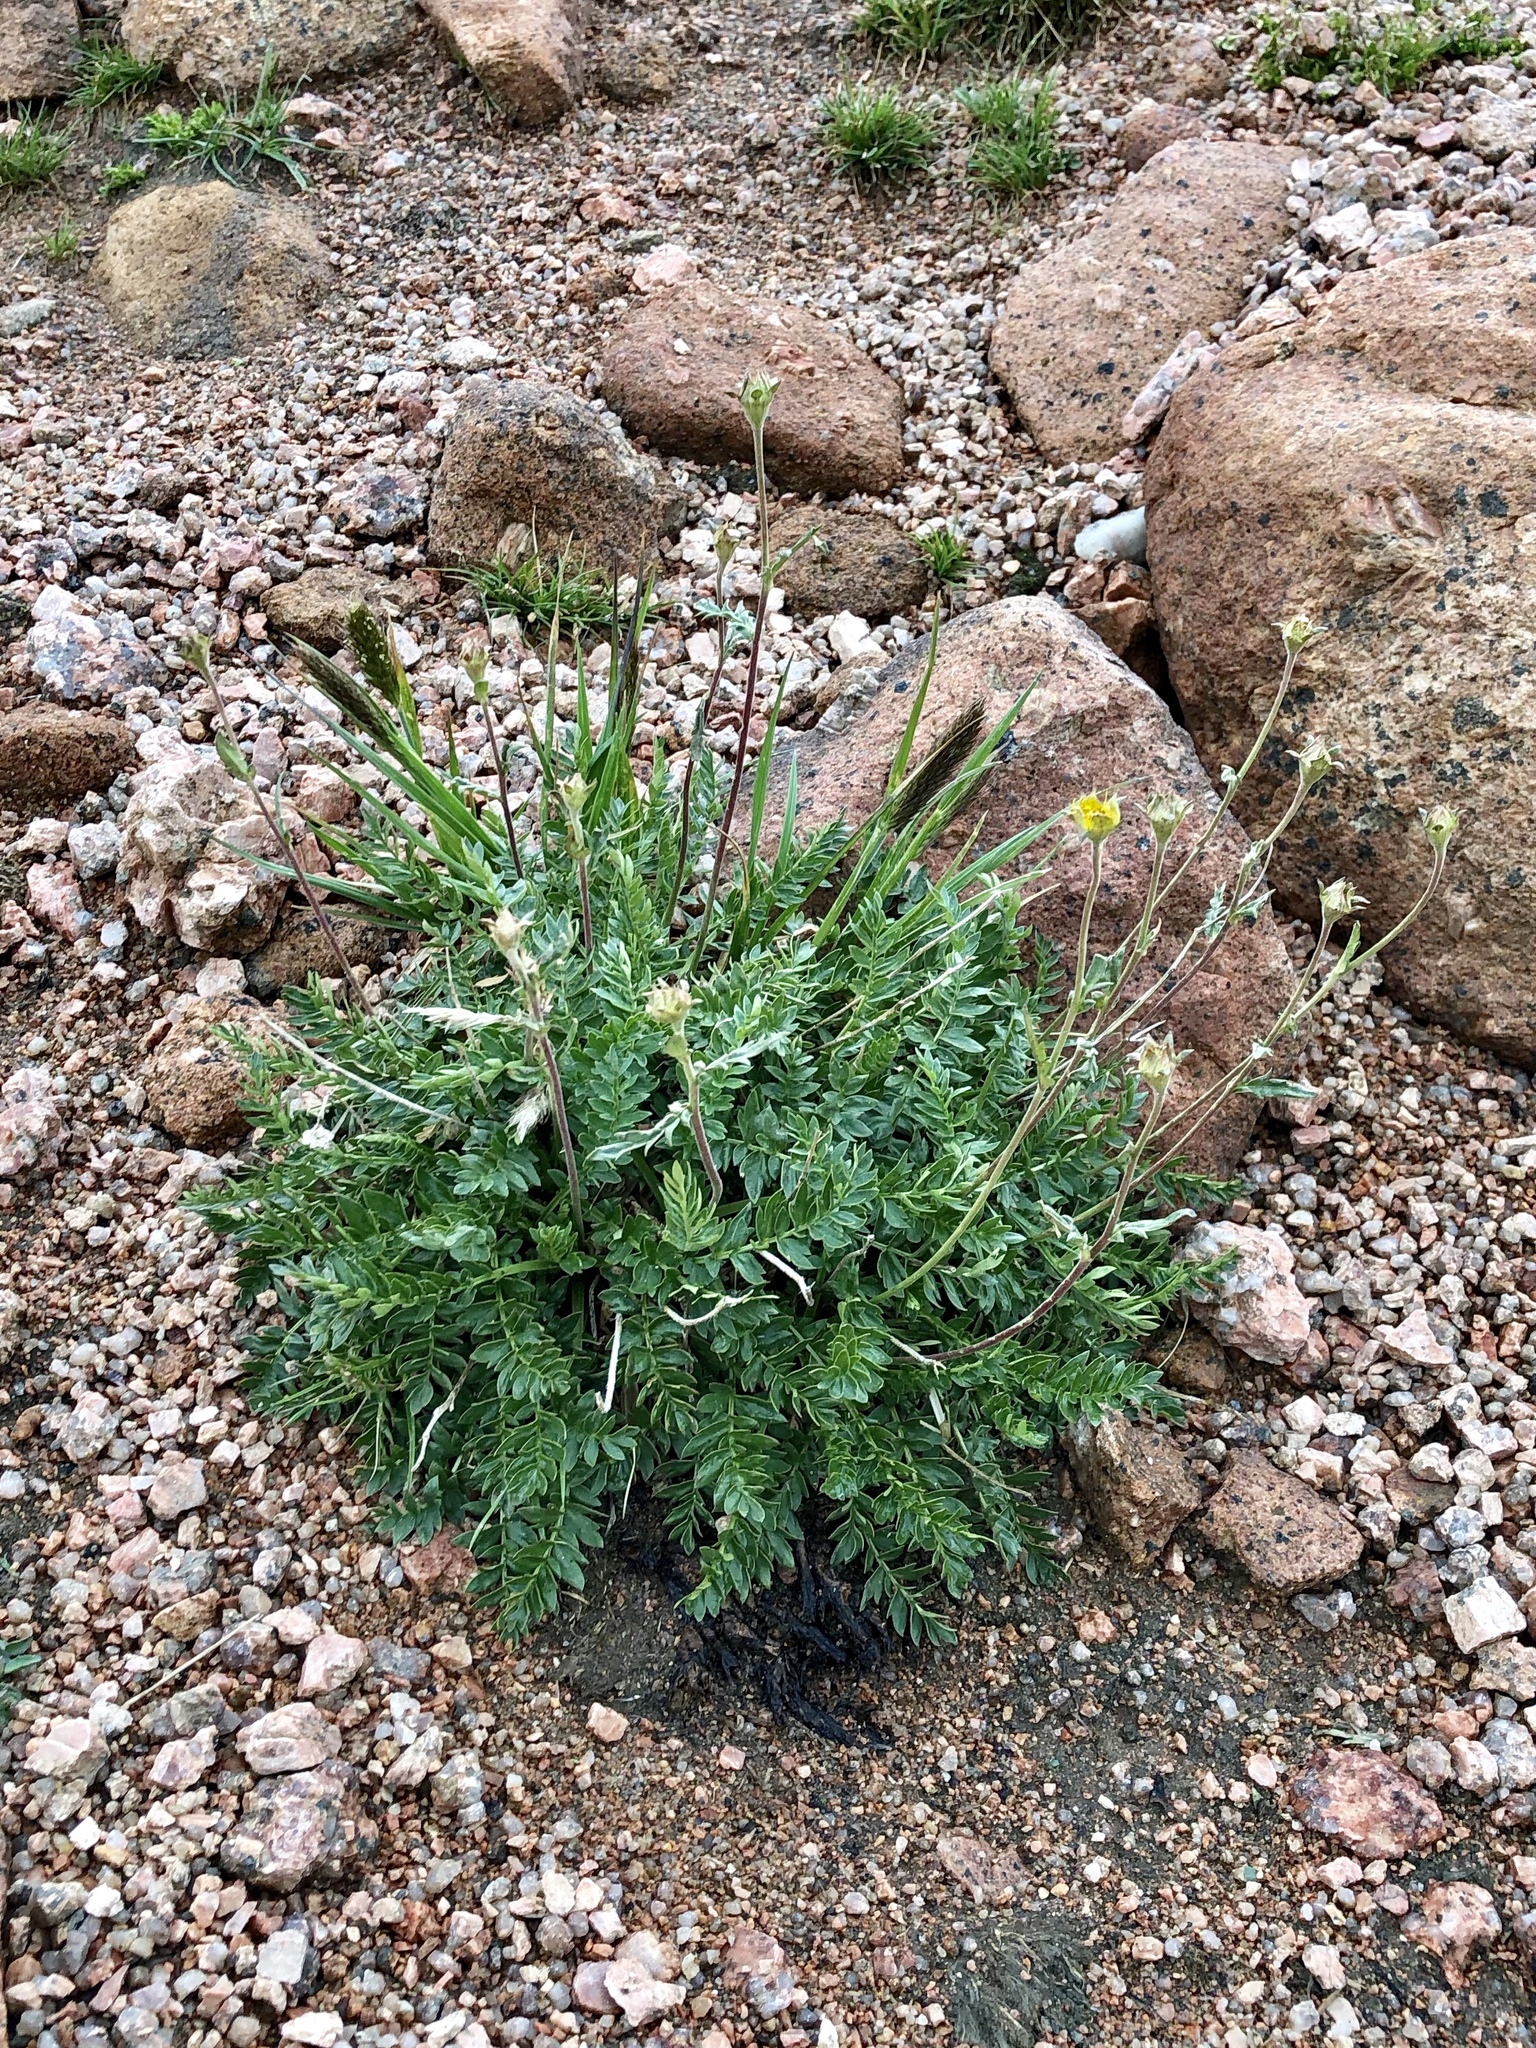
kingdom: Plantae
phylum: Tracheophyta
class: Magnoliopsida
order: Rosales
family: Rosaceae
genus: Geum
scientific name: Geum rossii
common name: Alpine avens
